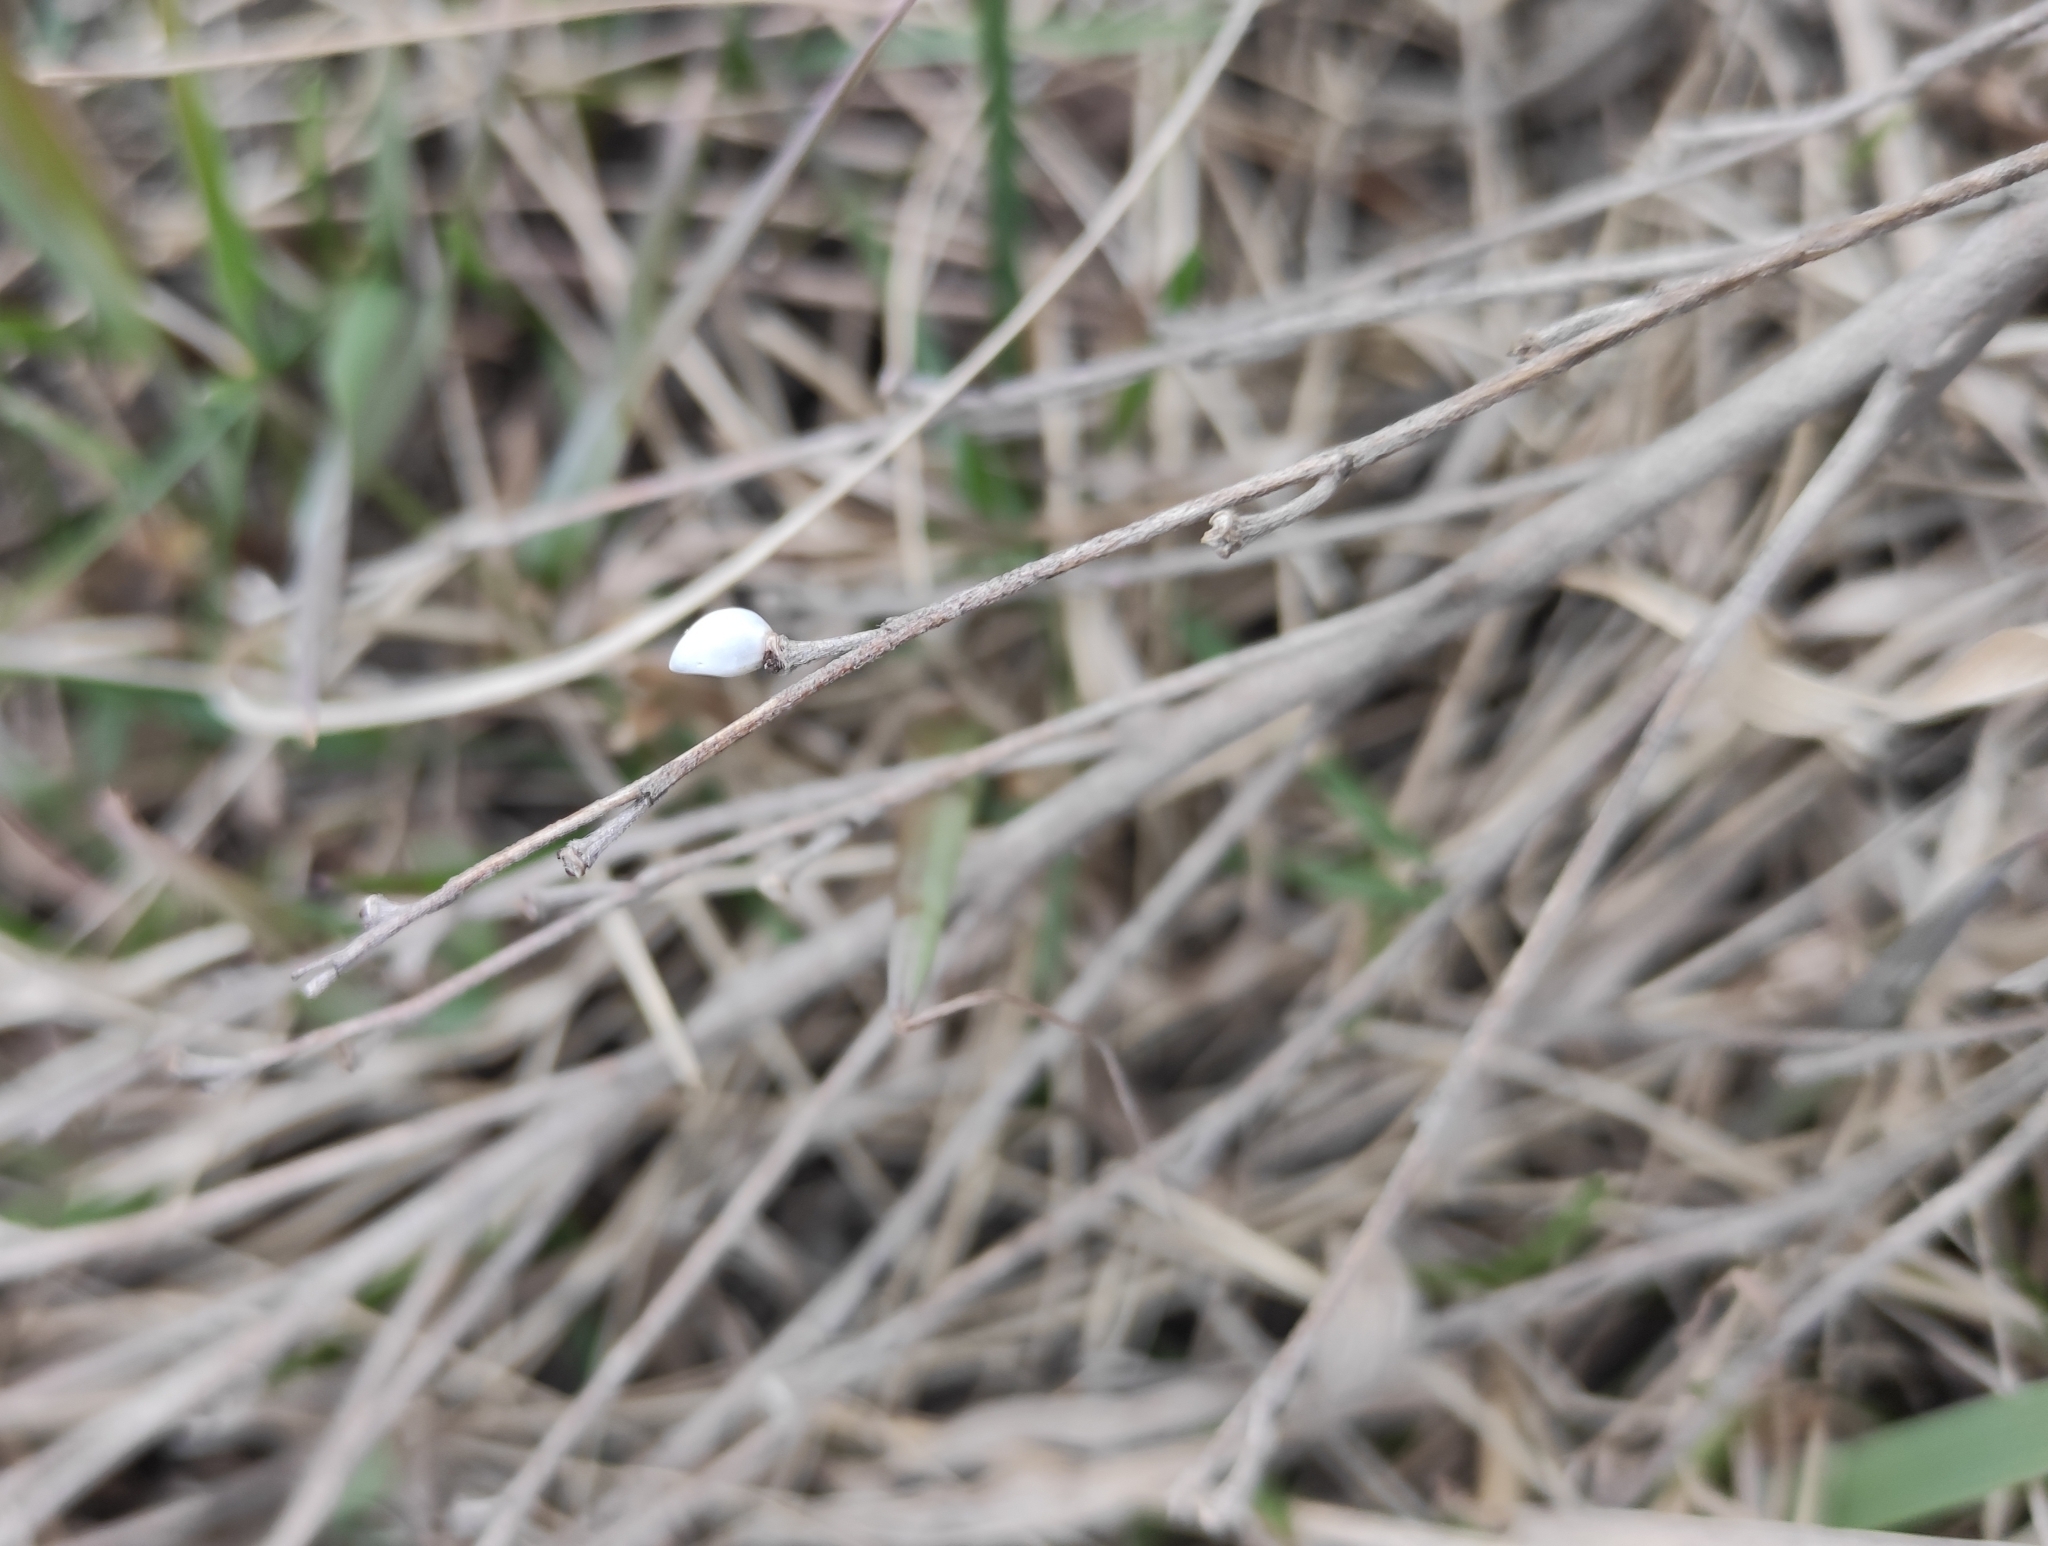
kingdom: Plantae
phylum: Tracheophyta
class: Magnoliopsida
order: Boraginales
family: Boraginaceae
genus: Lithospermum
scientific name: Lithospermum officinale
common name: Common gromwell
